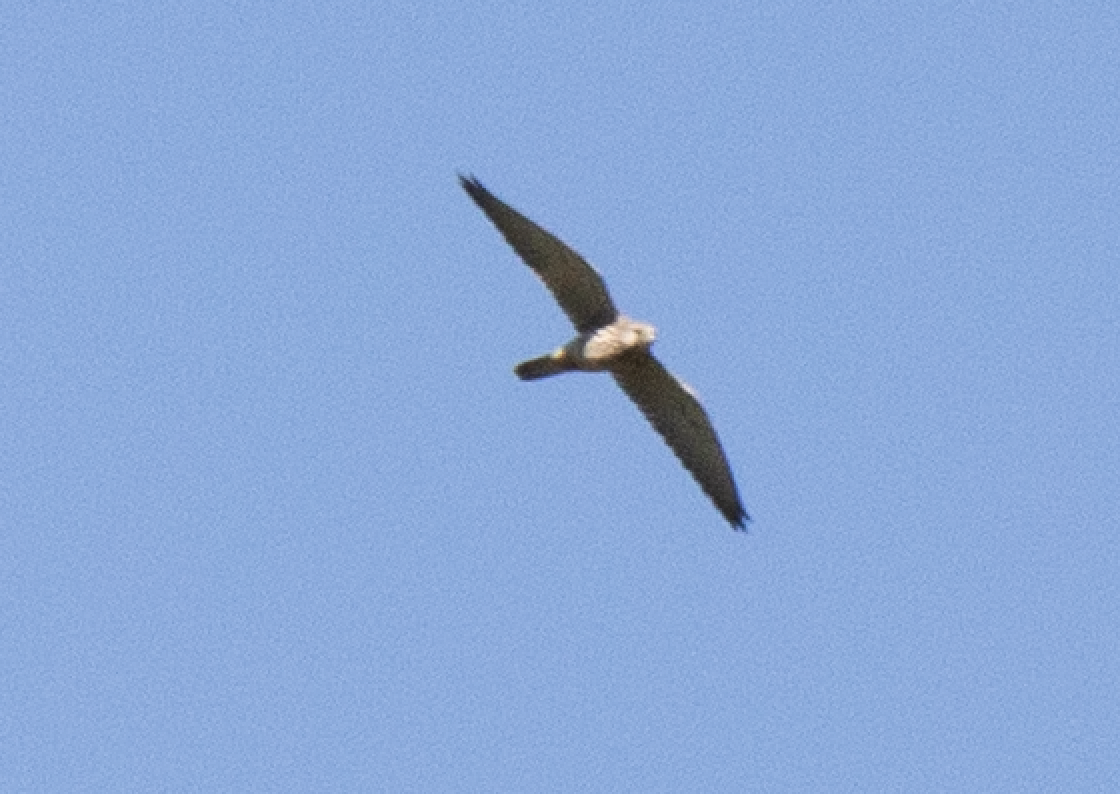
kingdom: Animalia
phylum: Chordata
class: Aves
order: Falconiformes
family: Falconidae
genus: Falco
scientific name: Falco tinnunculus
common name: Common kestrel
